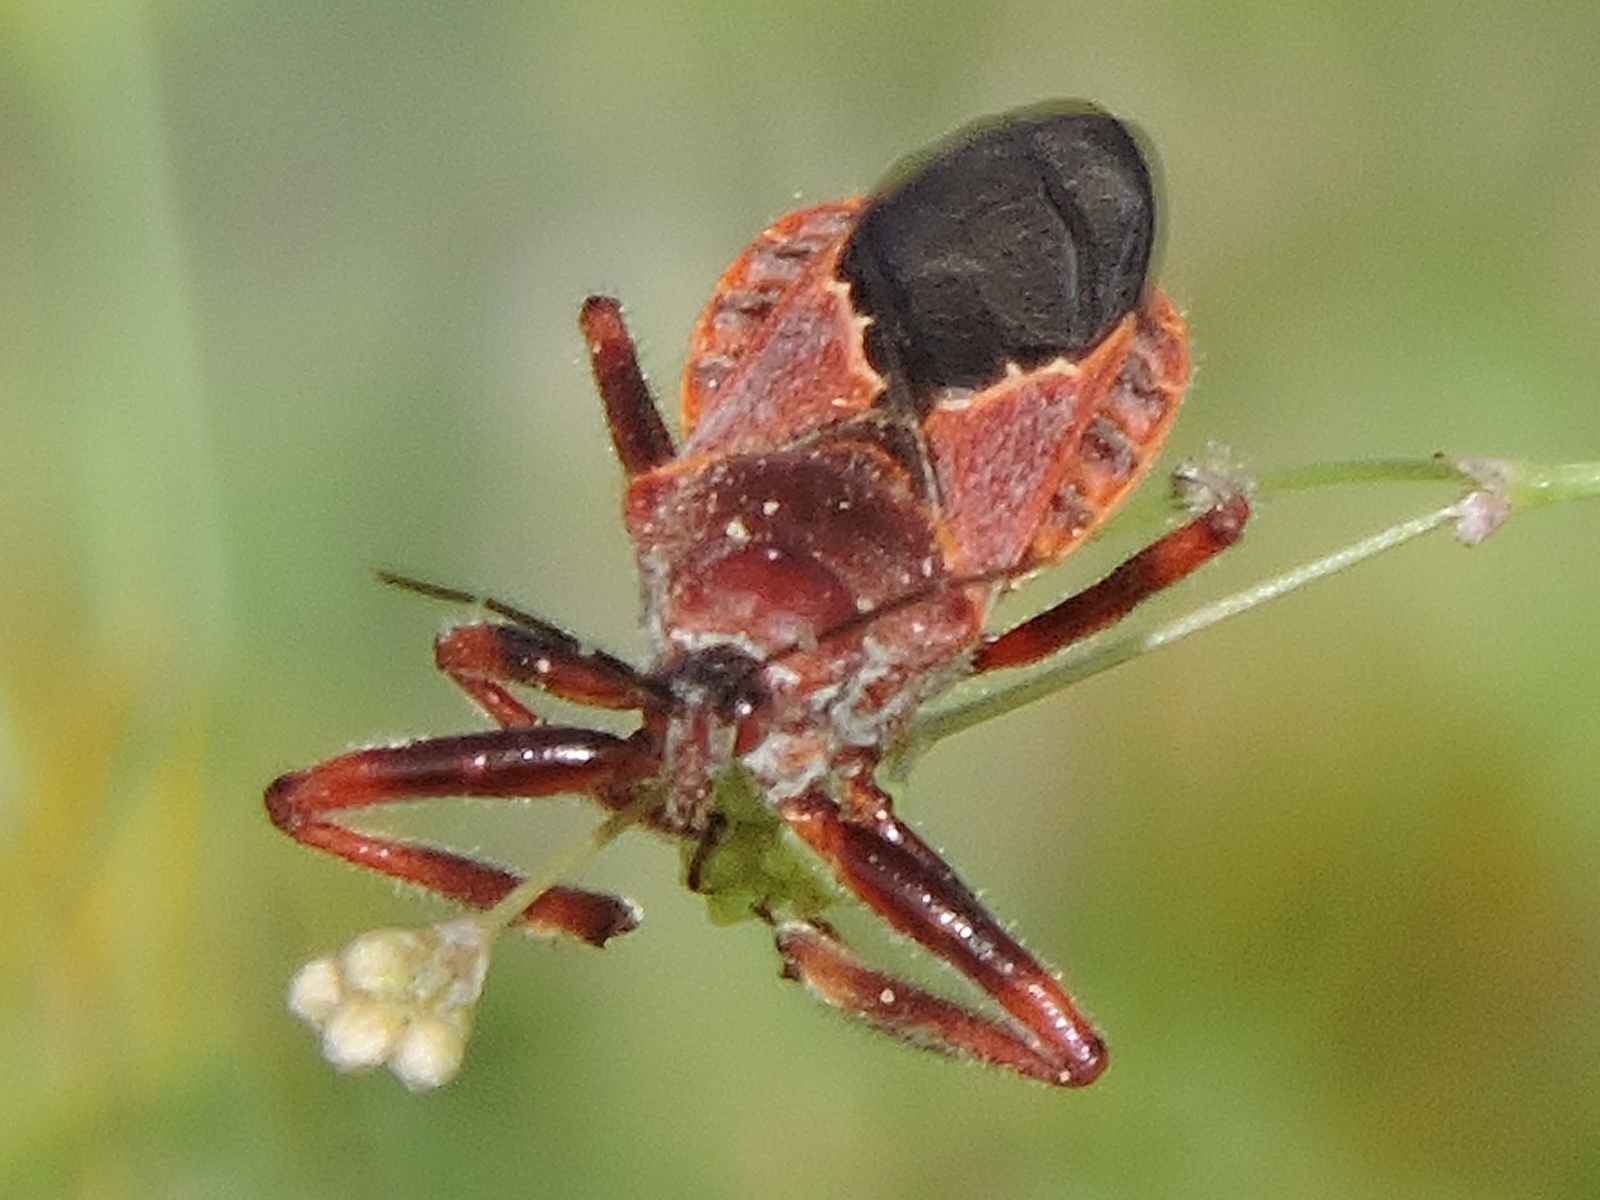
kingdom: Animalia
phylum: Arthropoda
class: Insecta
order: Hemiptera
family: Reduviidae
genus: Apiomerus
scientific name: Apiomerus cazieri
